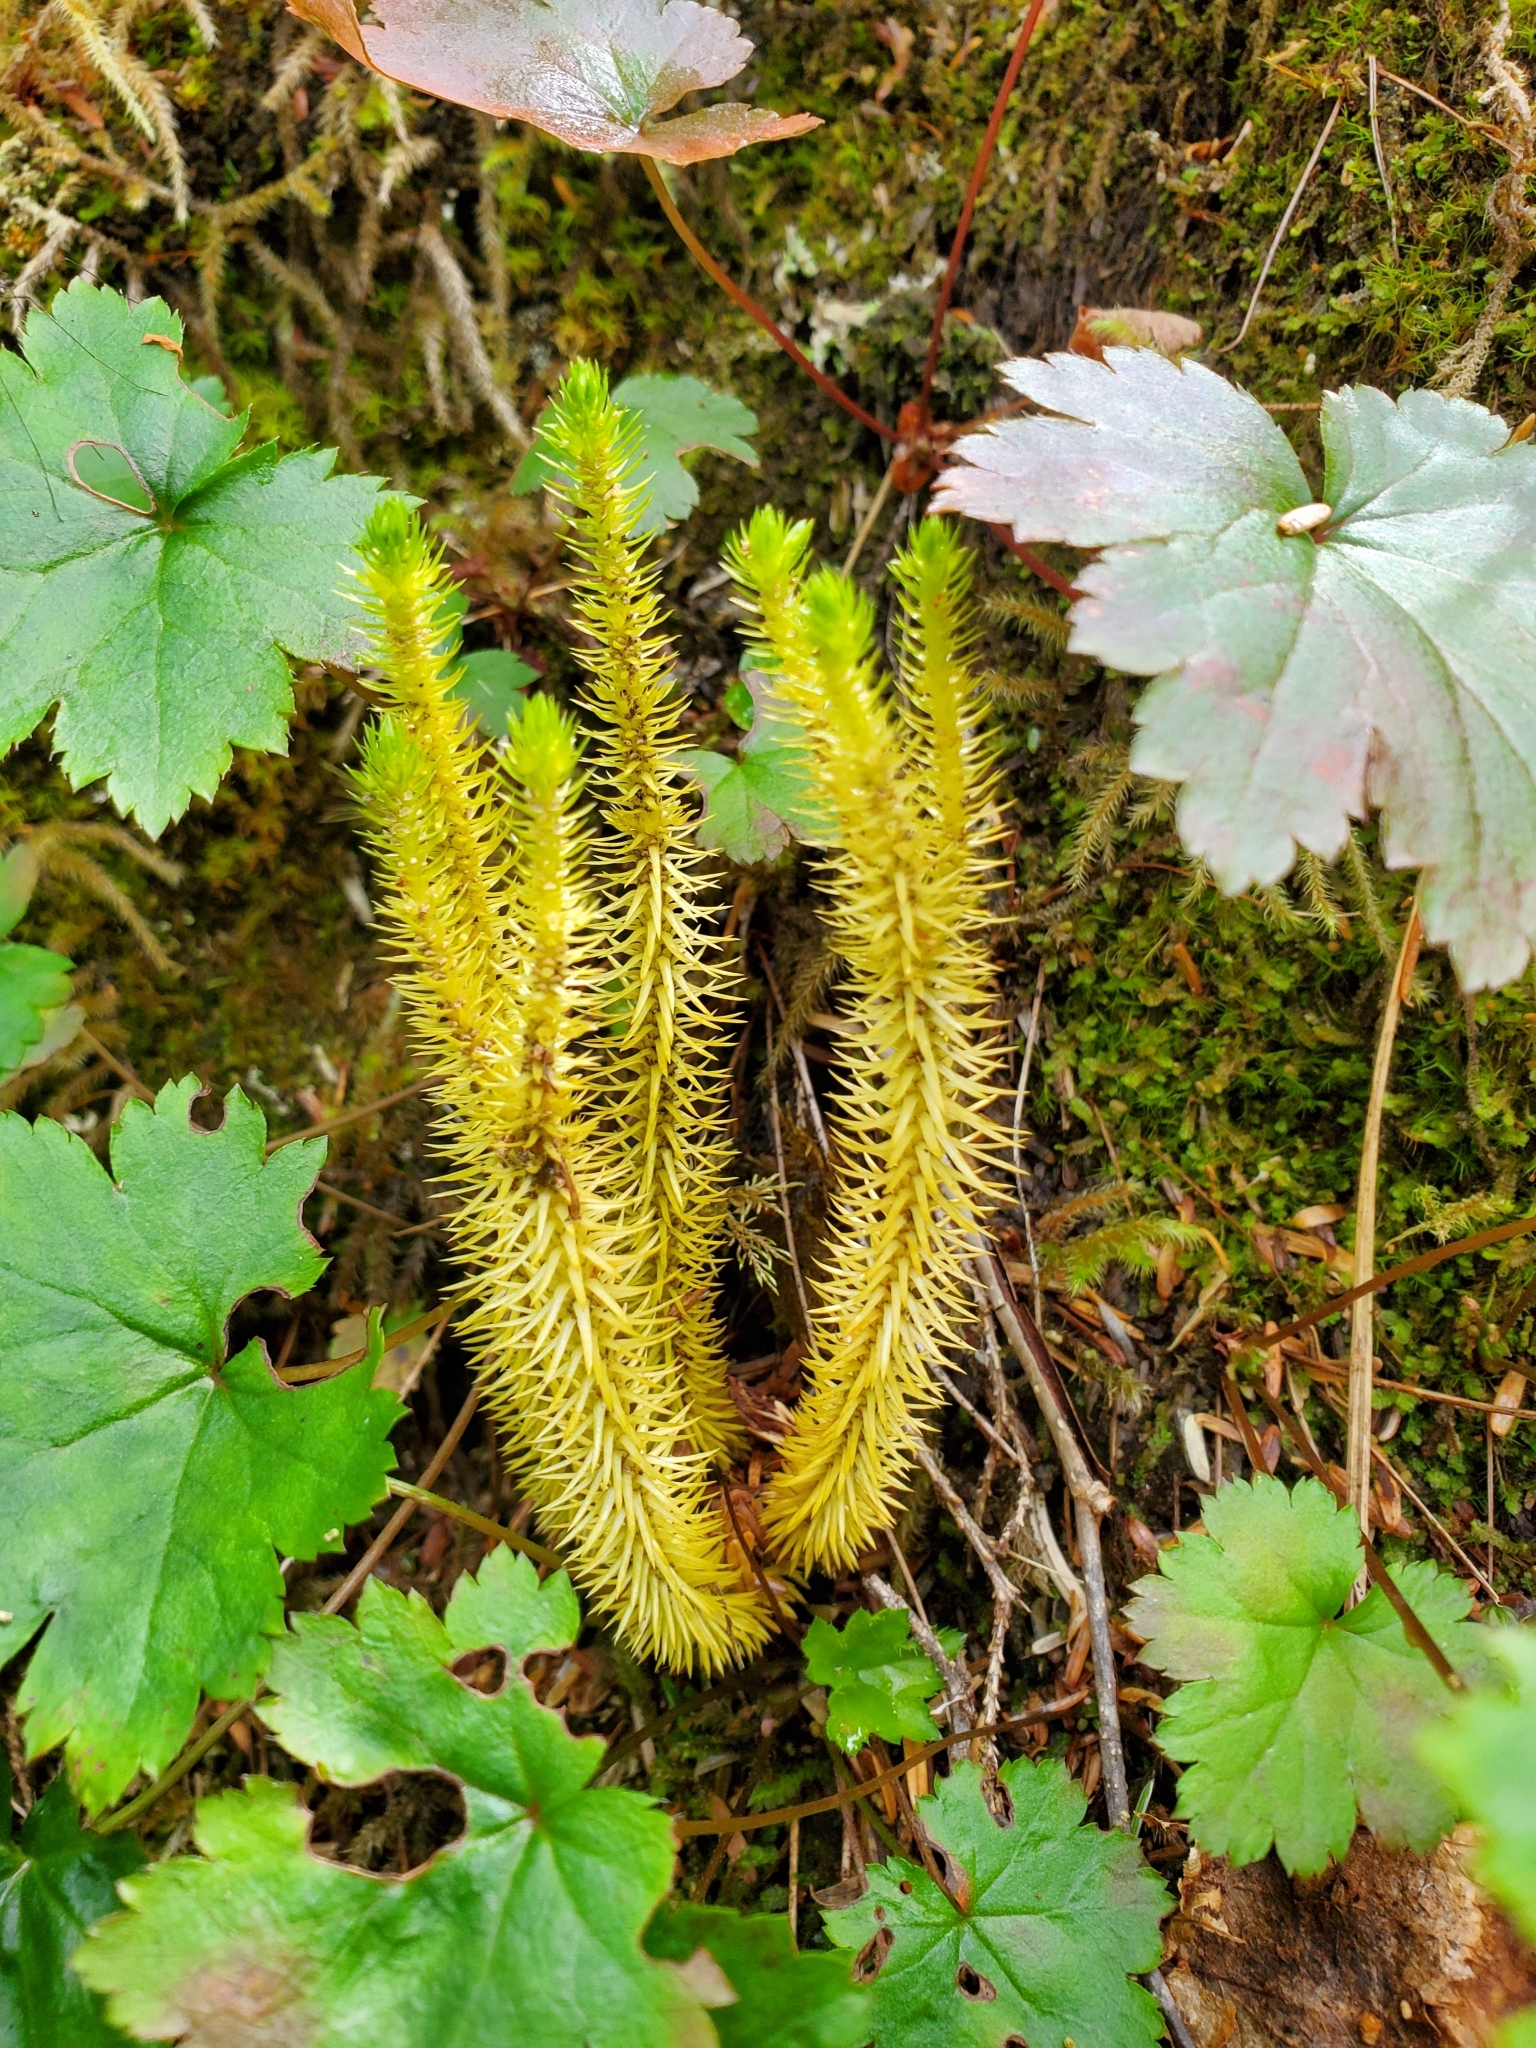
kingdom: Plantae
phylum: Tracheophyta
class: Lycopodiopsida
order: Lycopodiales
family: Lycopodiaceae
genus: Huperzia
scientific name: Huperzia miyoshiana
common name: Chinese clubmoss
